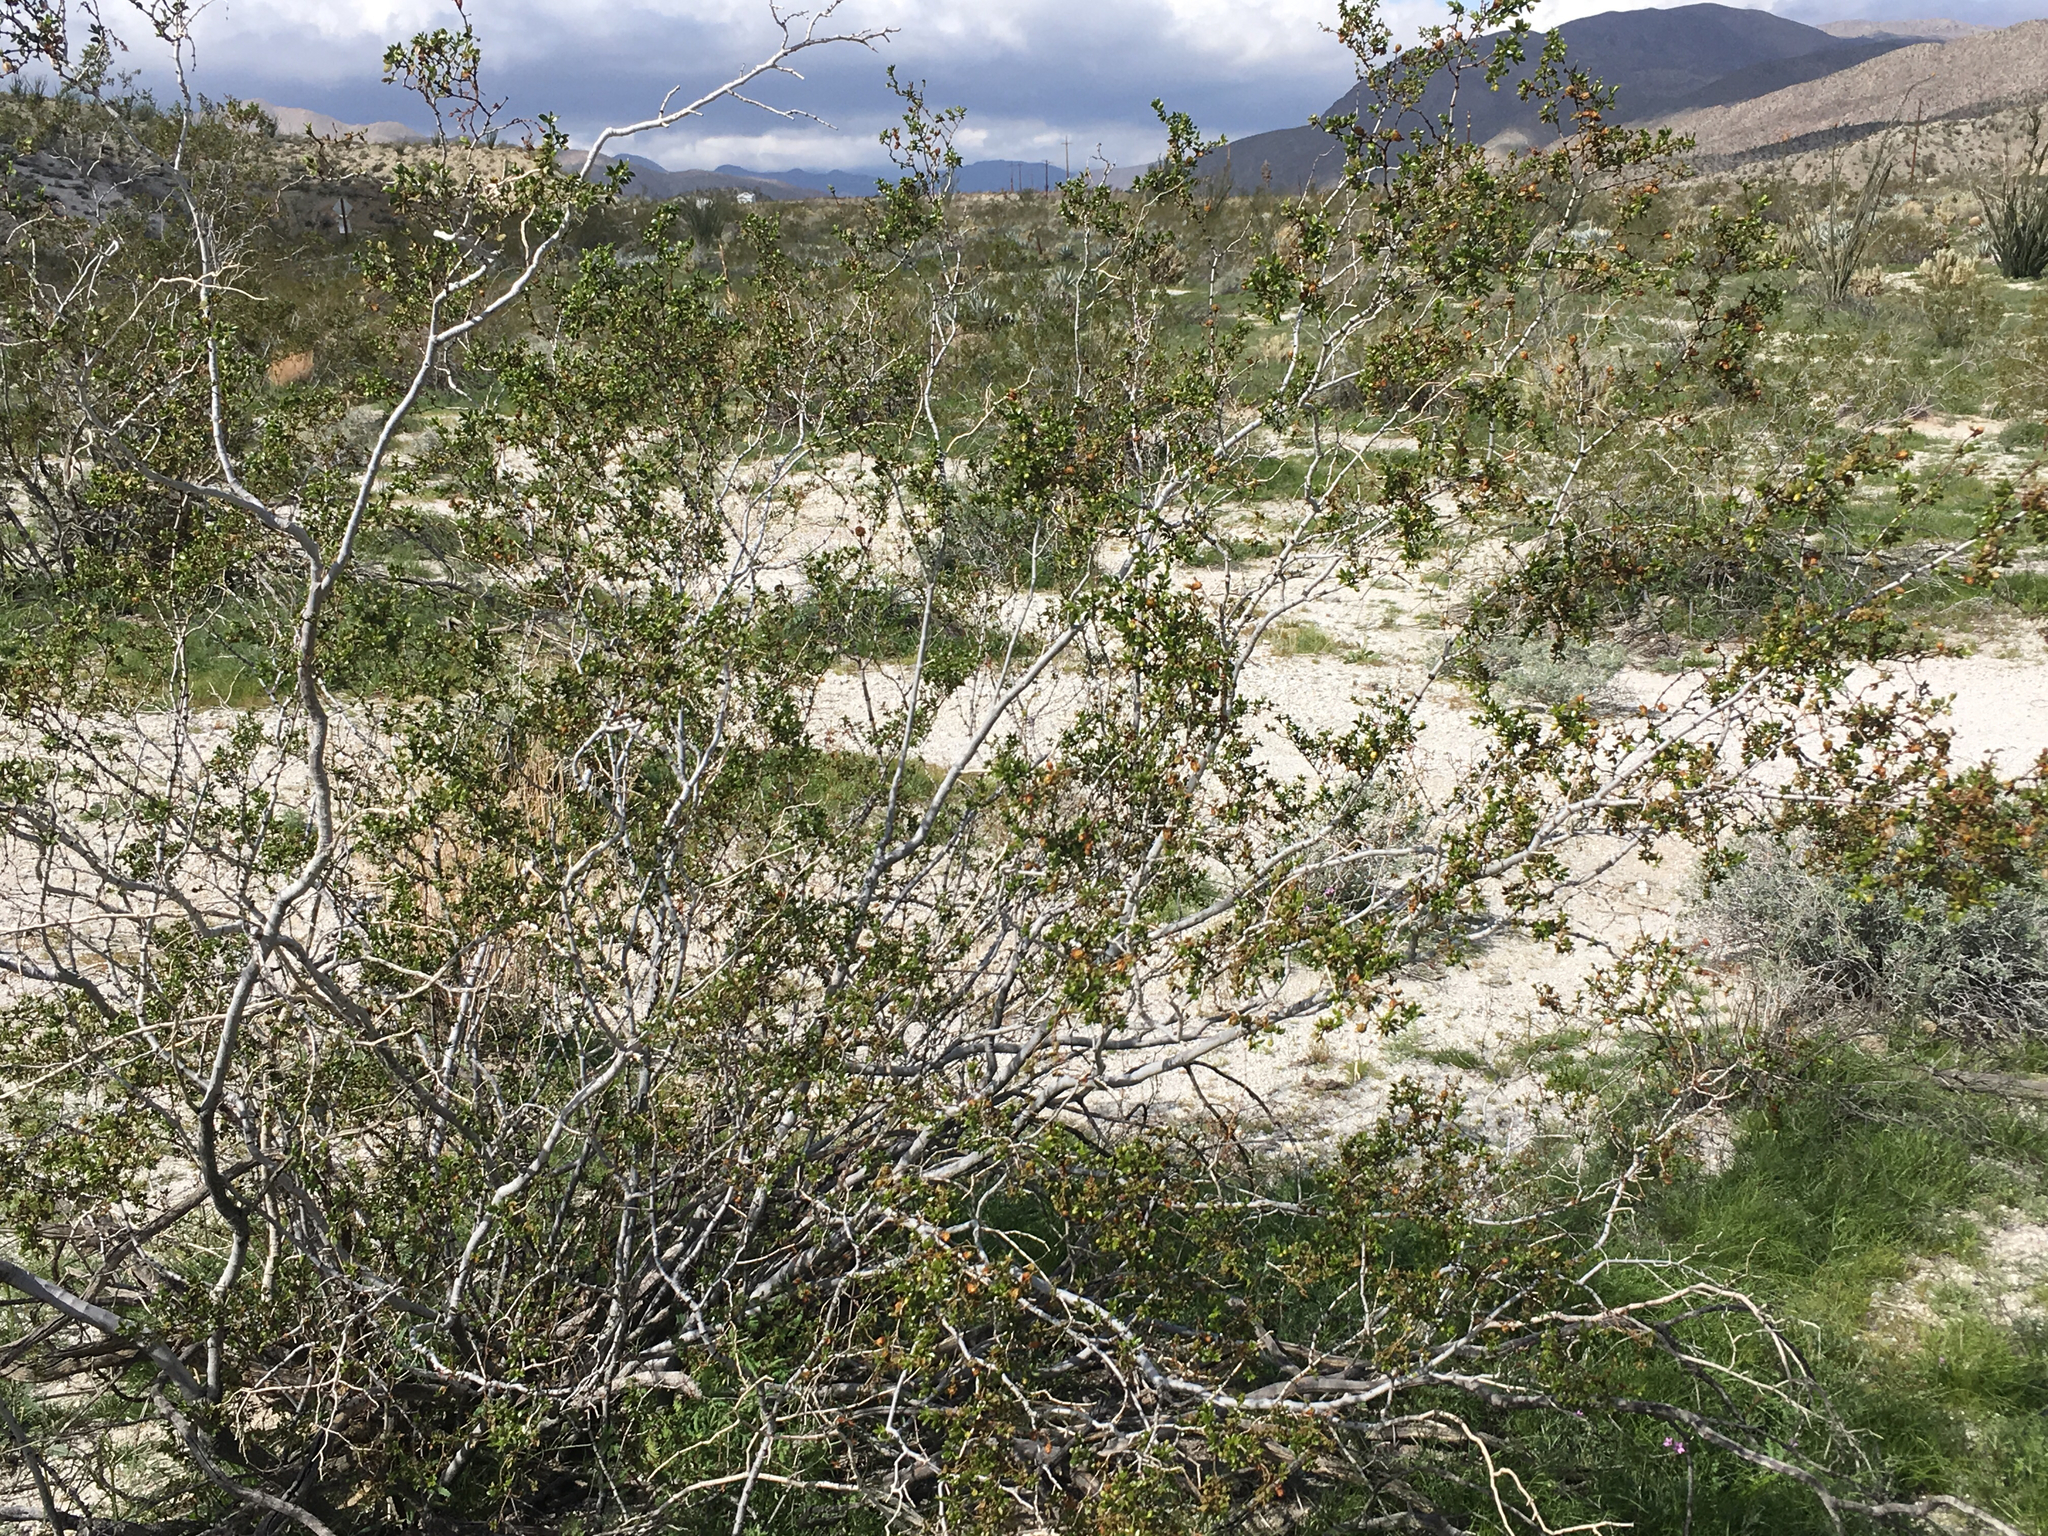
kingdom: Plantae
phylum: Tracheophyta
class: Magnoliopsida
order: Zygophyllales
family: Zygophyllaceae
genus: Larrea
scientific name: Larrea tridentata
